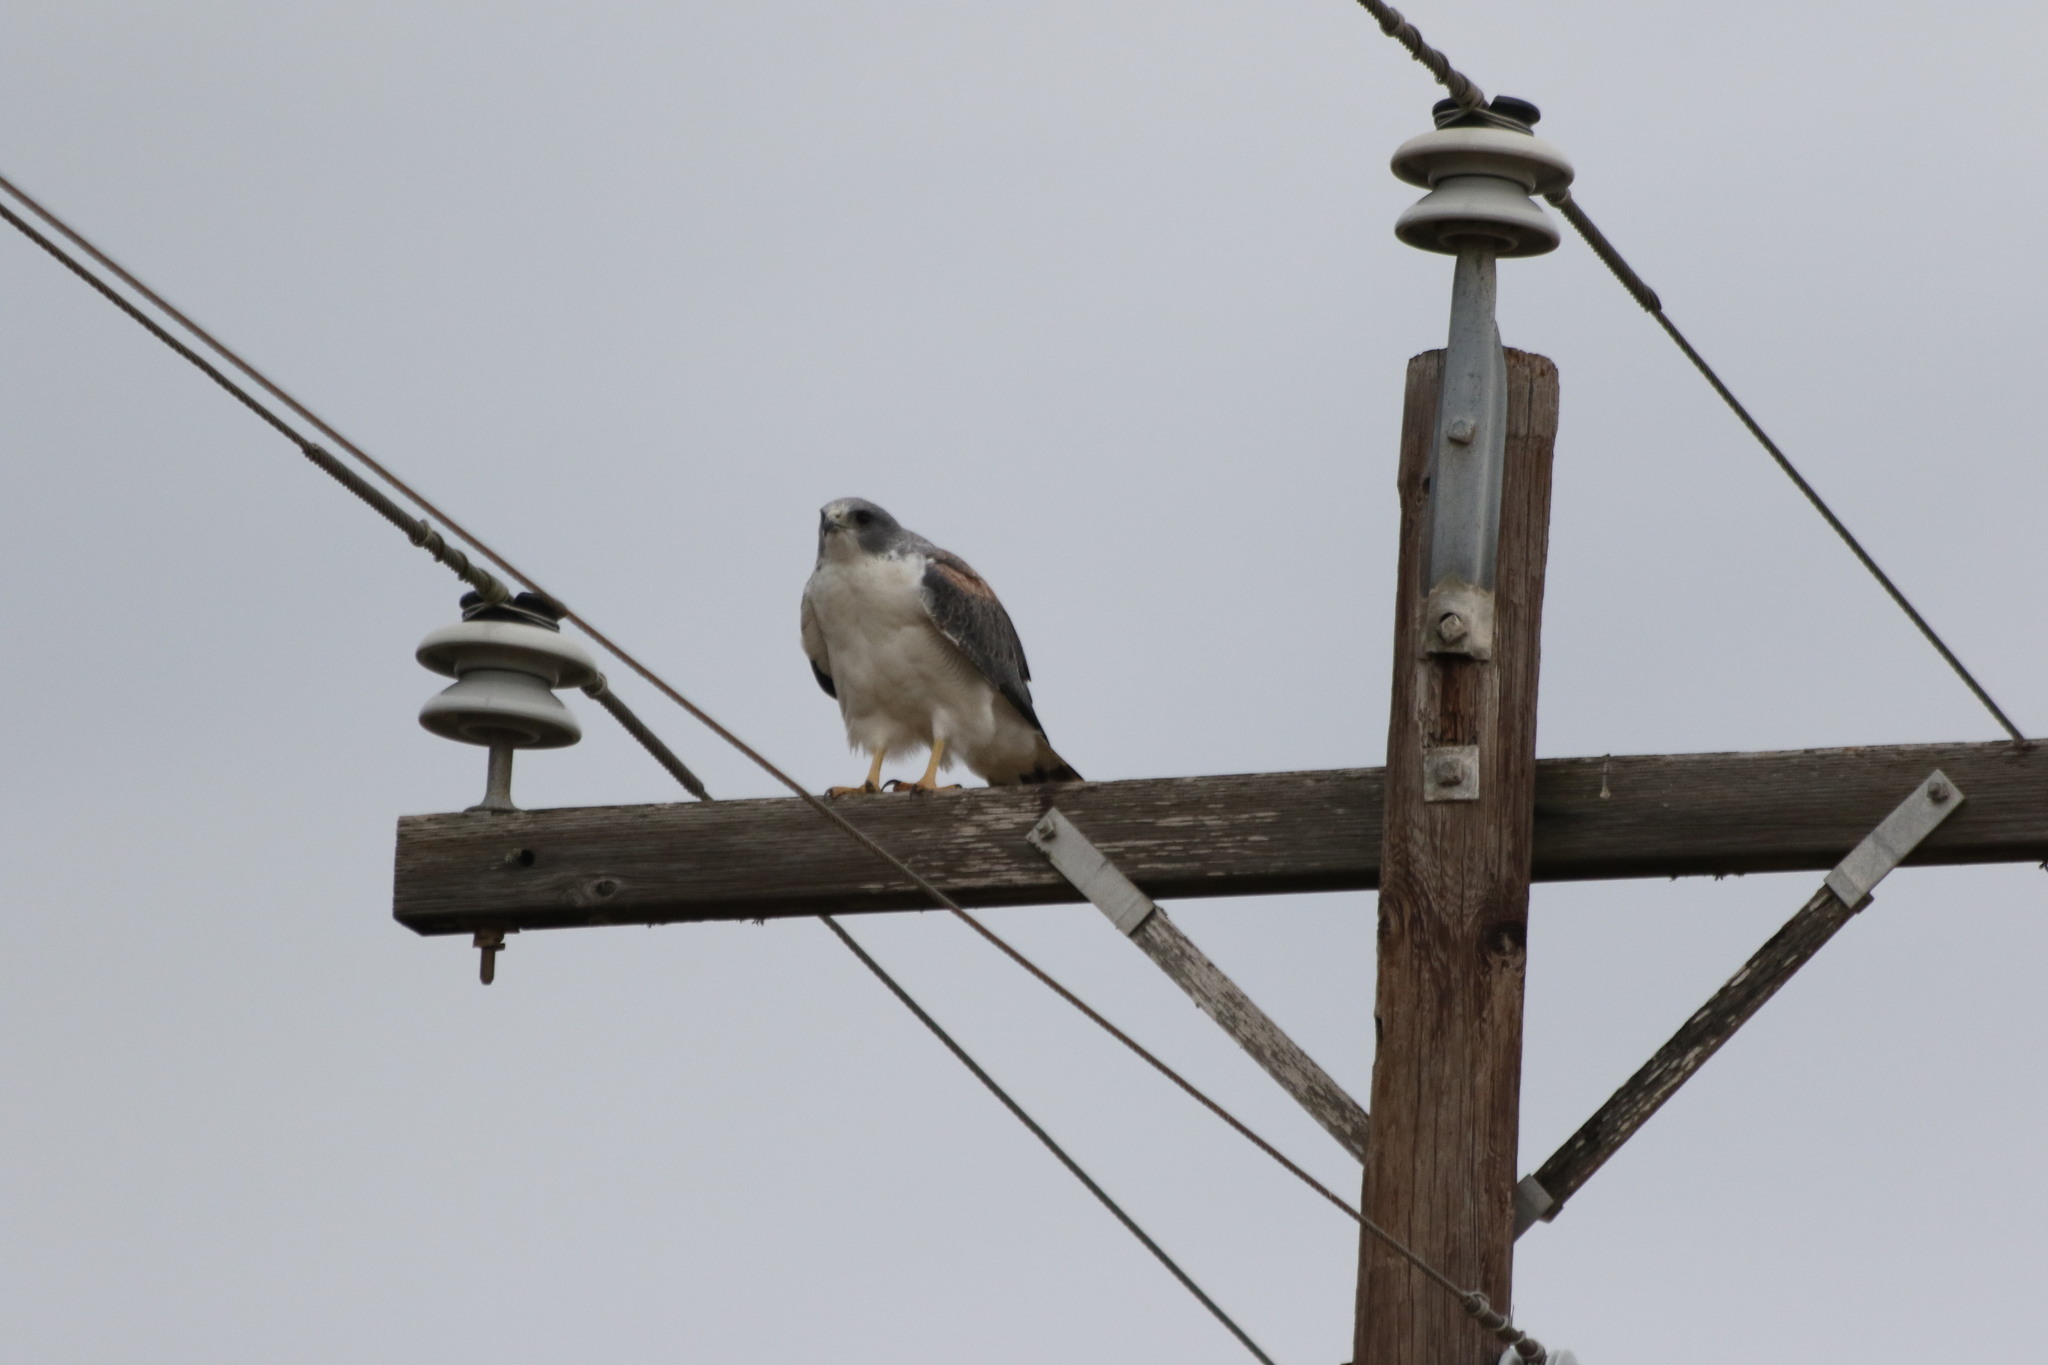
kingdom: Animalia
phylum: Chordata
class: Aves
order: Accipitriformes
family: Accipitridae
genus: Buteo
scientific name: Buteo albicaudatus
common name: White-tailed hawk
